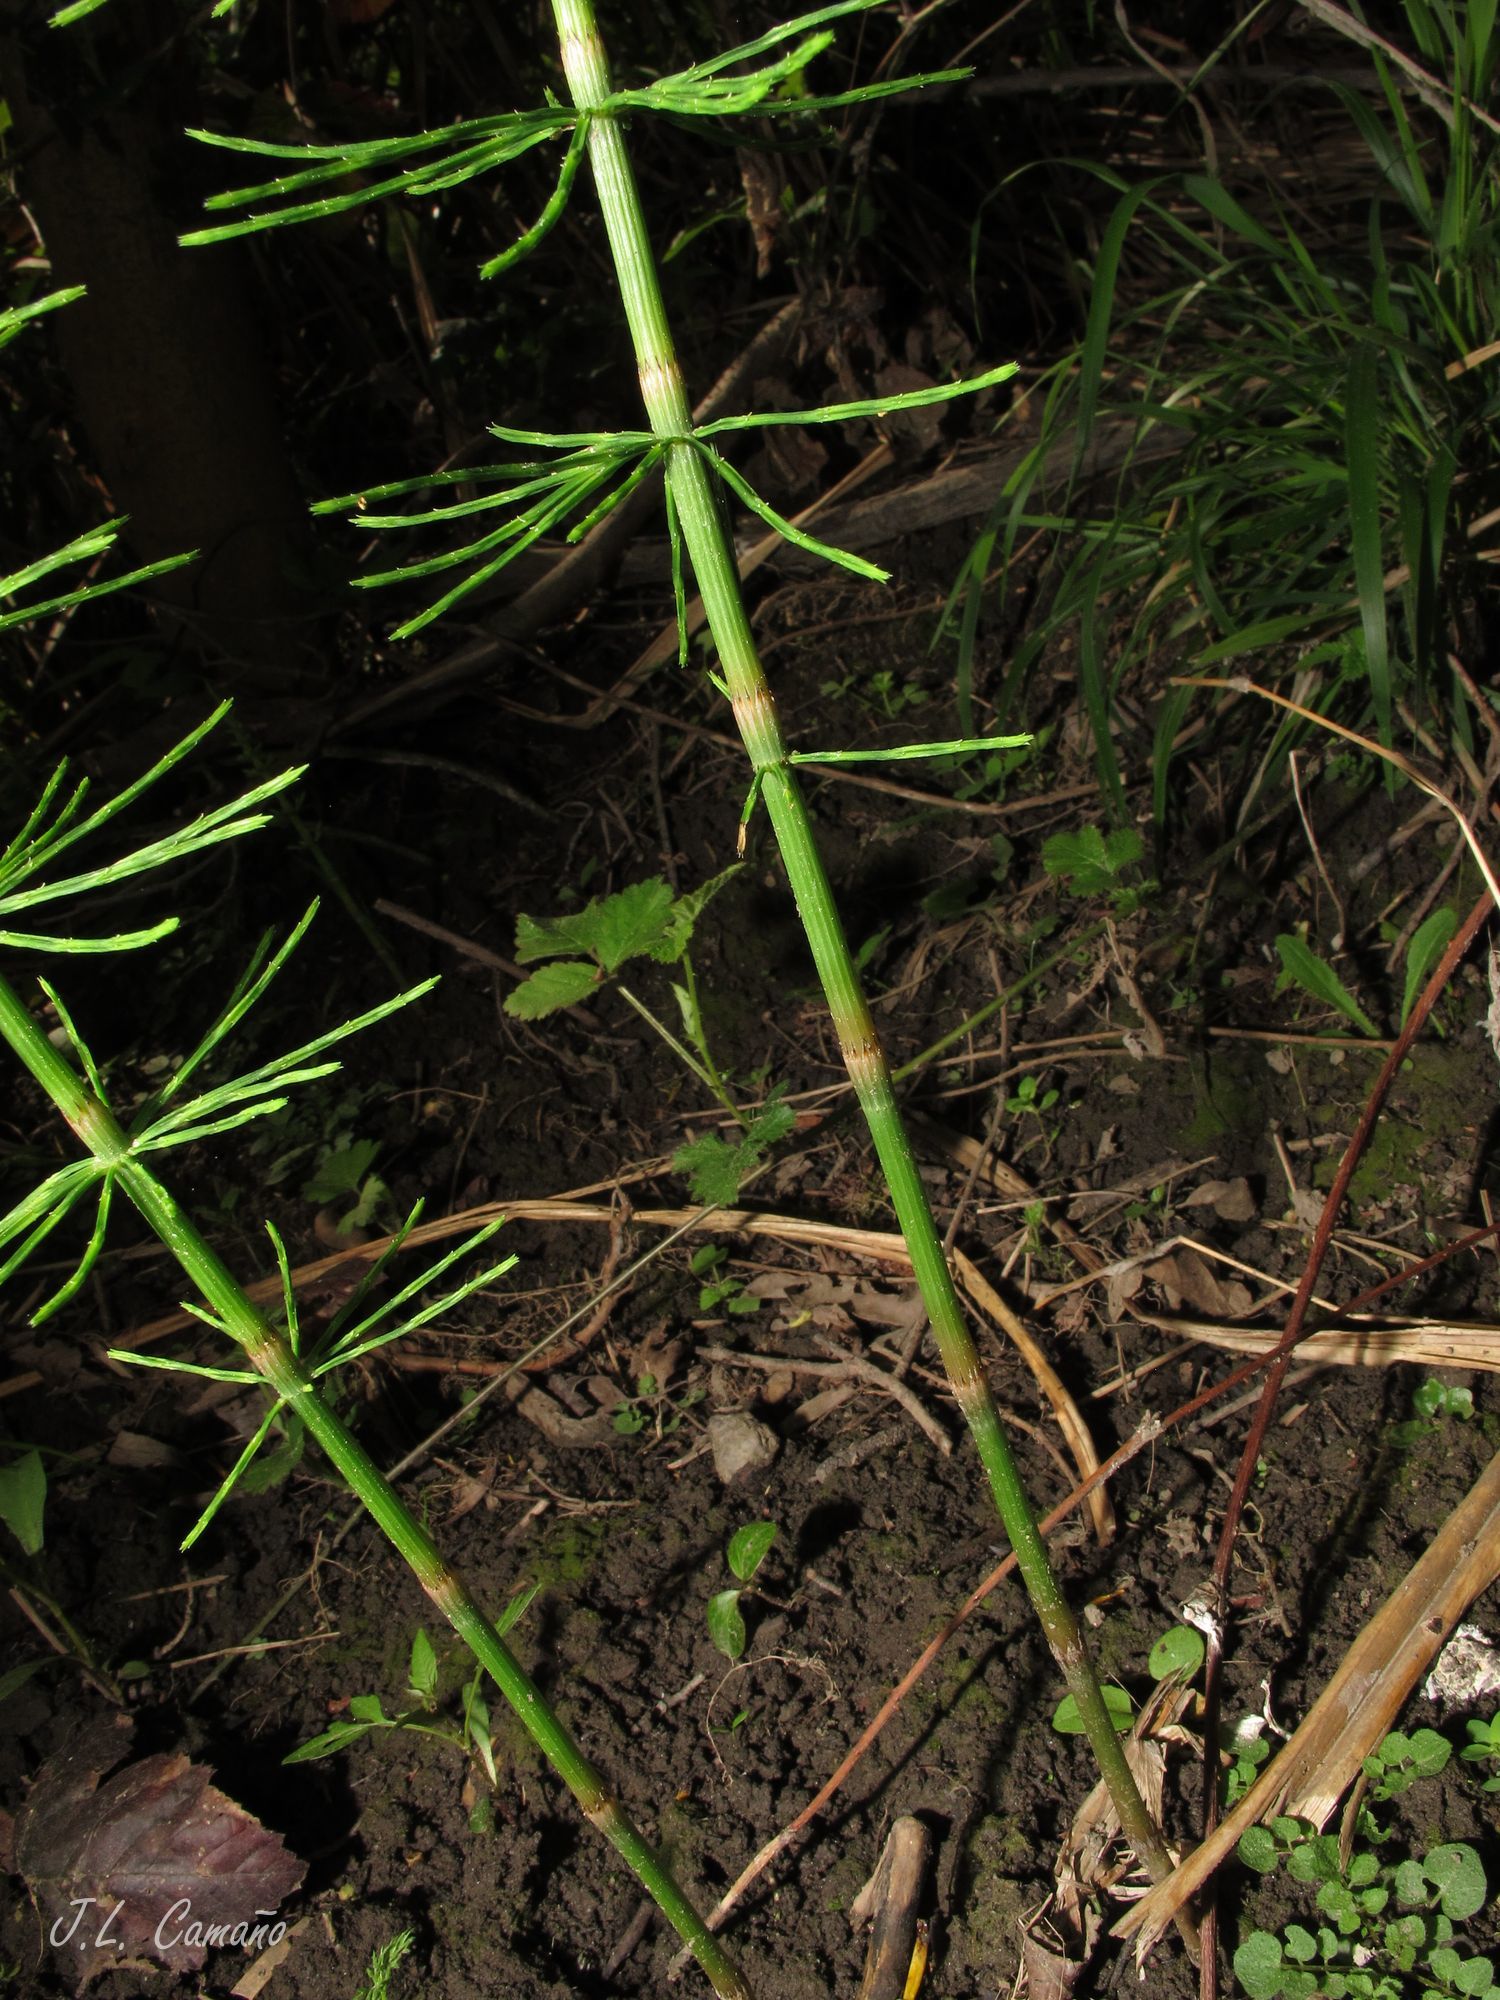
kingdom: Plantae
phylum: Tracheophyta
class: Polypodiopsida
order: Equisetales
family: Equisetaceae
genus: Equisetum
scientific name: Equisetum arvense
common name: Field horsetail
